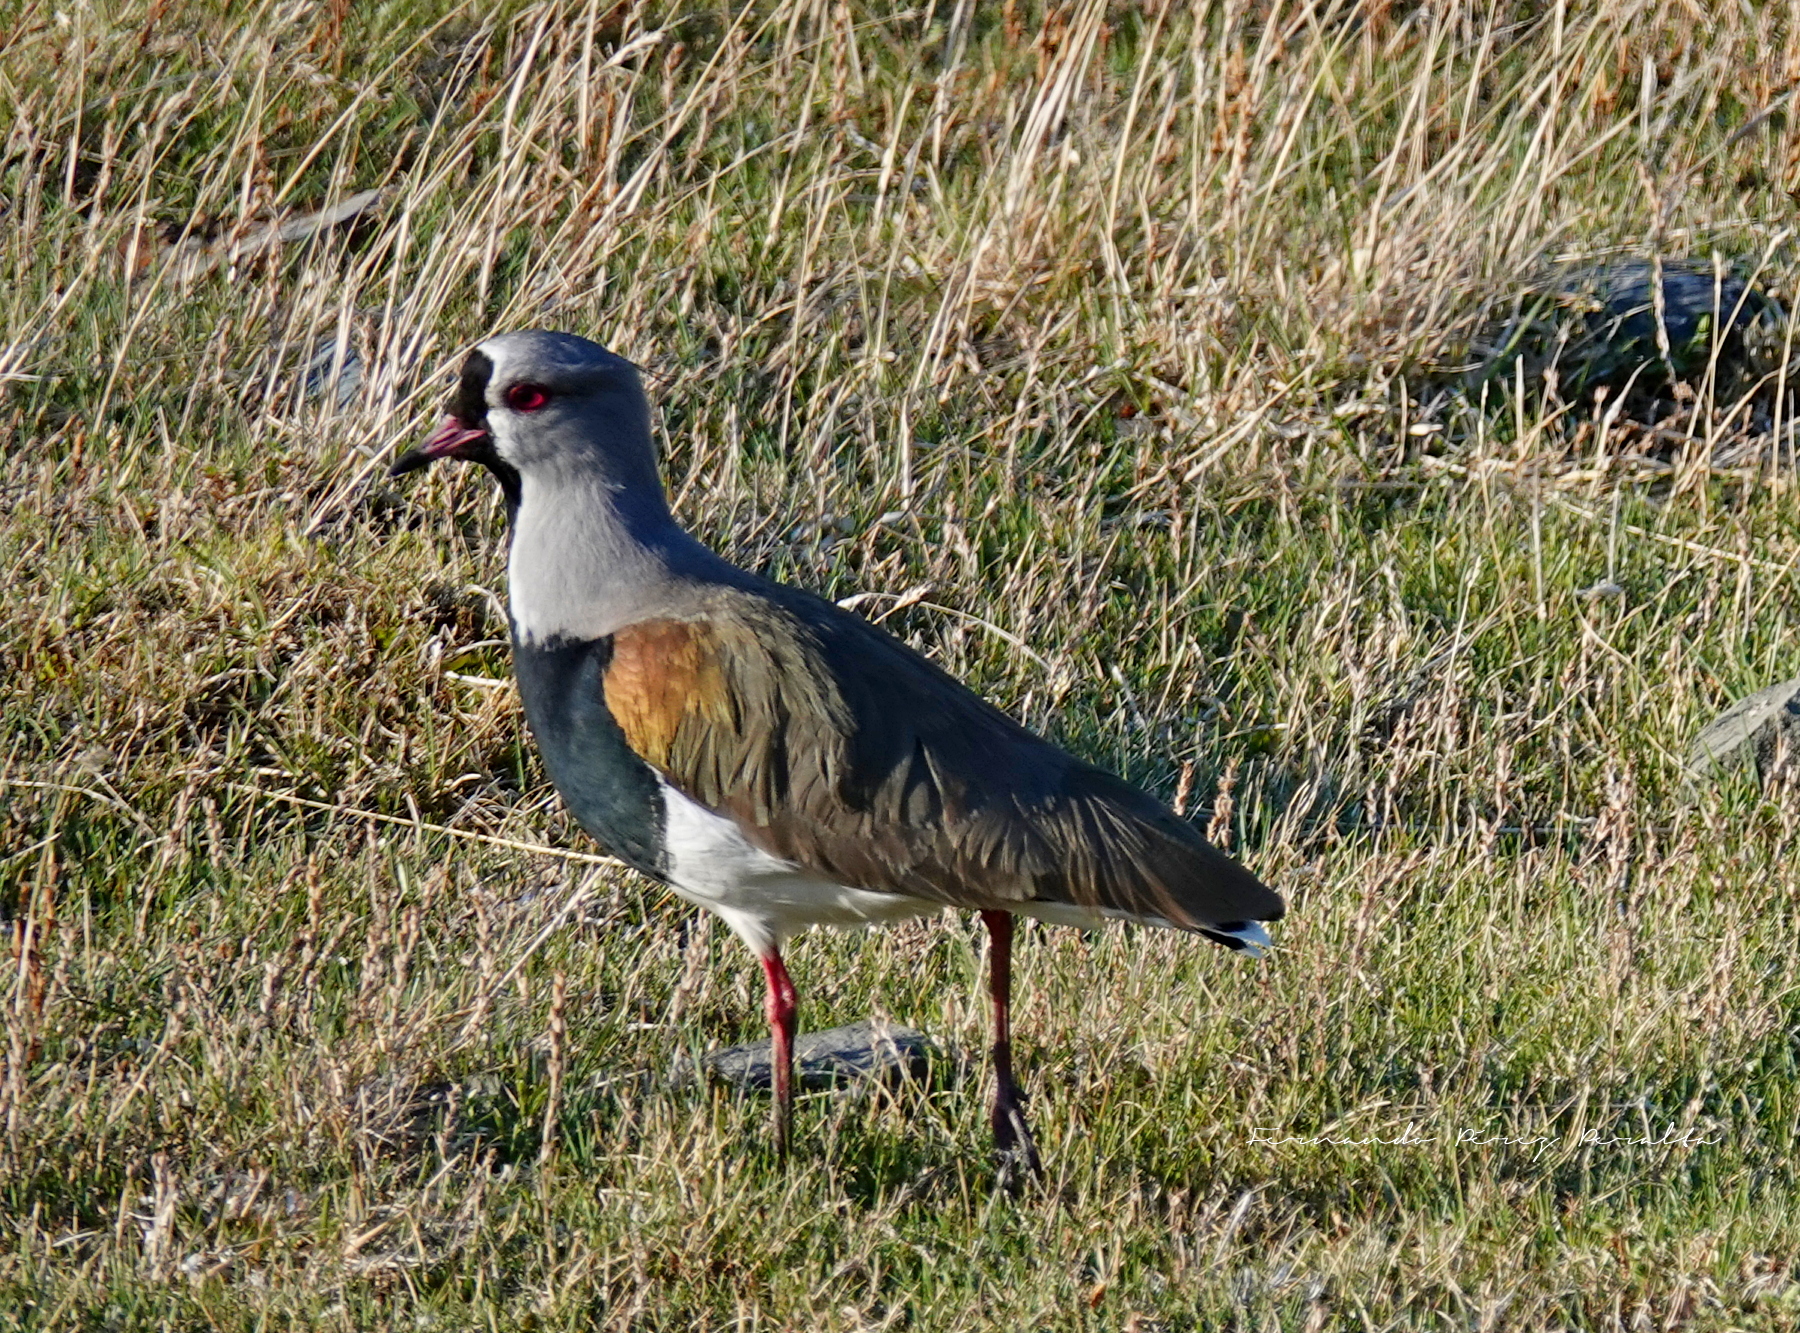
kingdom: Animalia
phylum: Chordata
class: Aves
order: Charadriiformes
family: Charadriidae
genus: Vanellus
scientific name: Vanellus chilensis
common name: Southern lapwing
